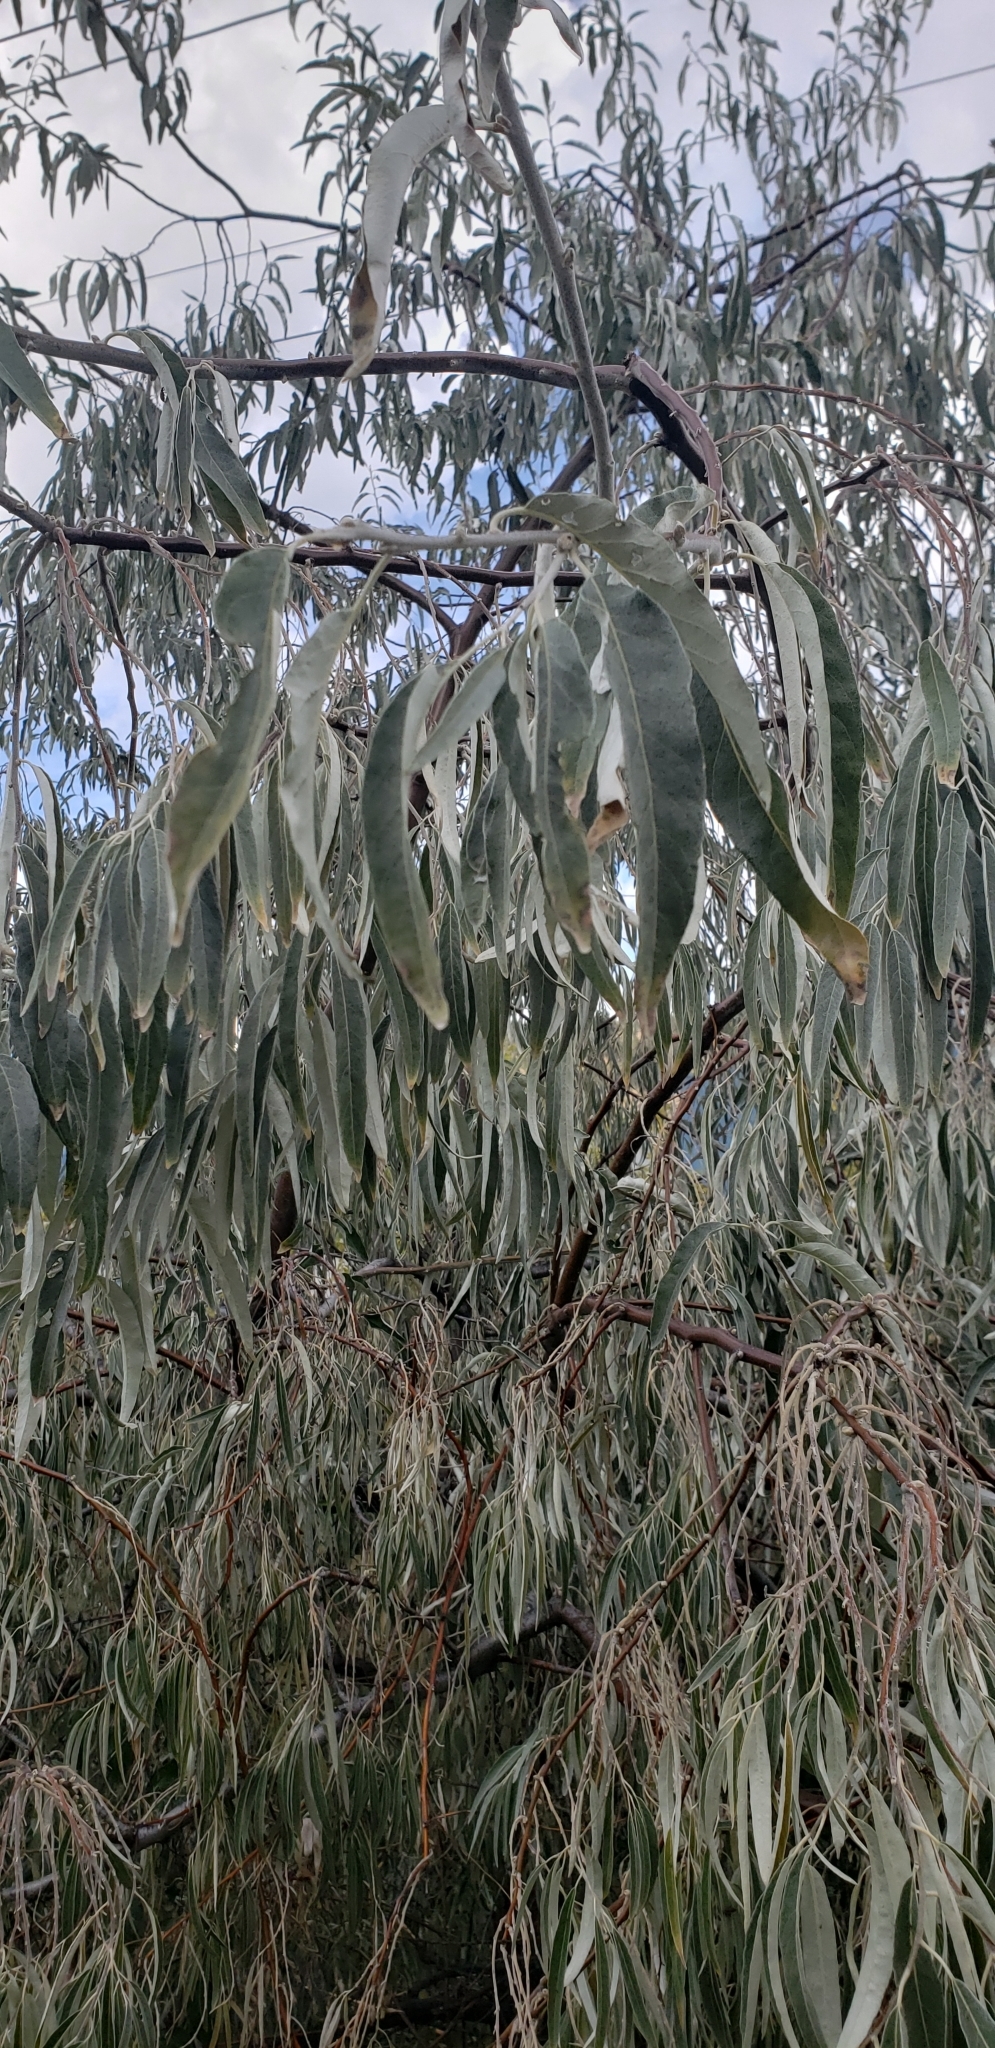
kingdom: Plantae
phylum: Tracheophyta
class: Magnoliopsida
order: Rosales
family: Elaeagnaceae
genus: Elaeagnus
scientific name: Elaeagnus angustifolia
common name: Russian olive
